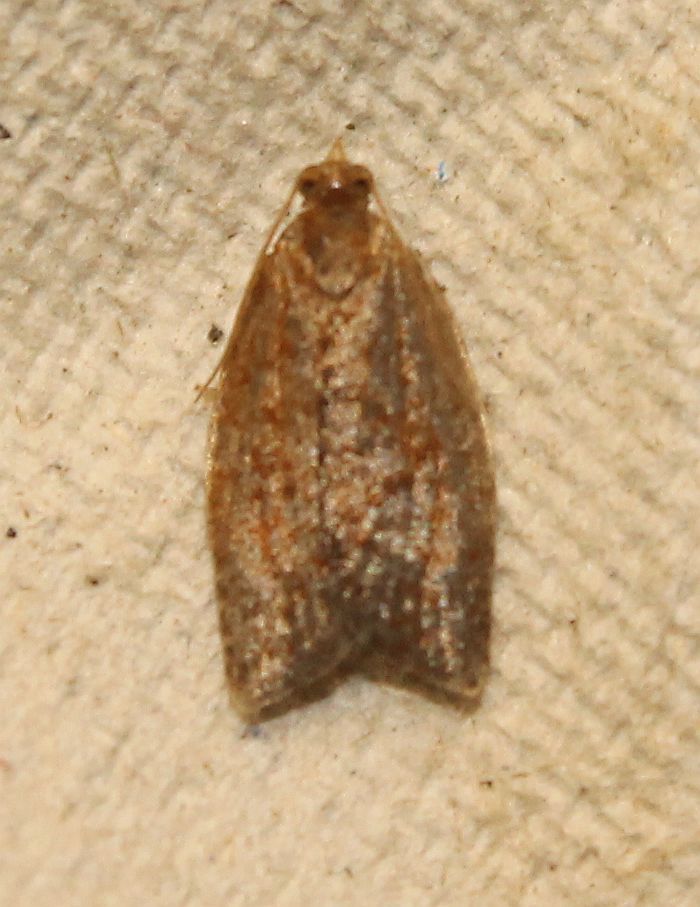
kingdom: Animalia
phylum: Arthropoda
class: Insecta
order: Lepidoptera
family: Tortricidae
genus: Clepsis
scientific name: Clepsis consimilana
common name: Privet tortrix
